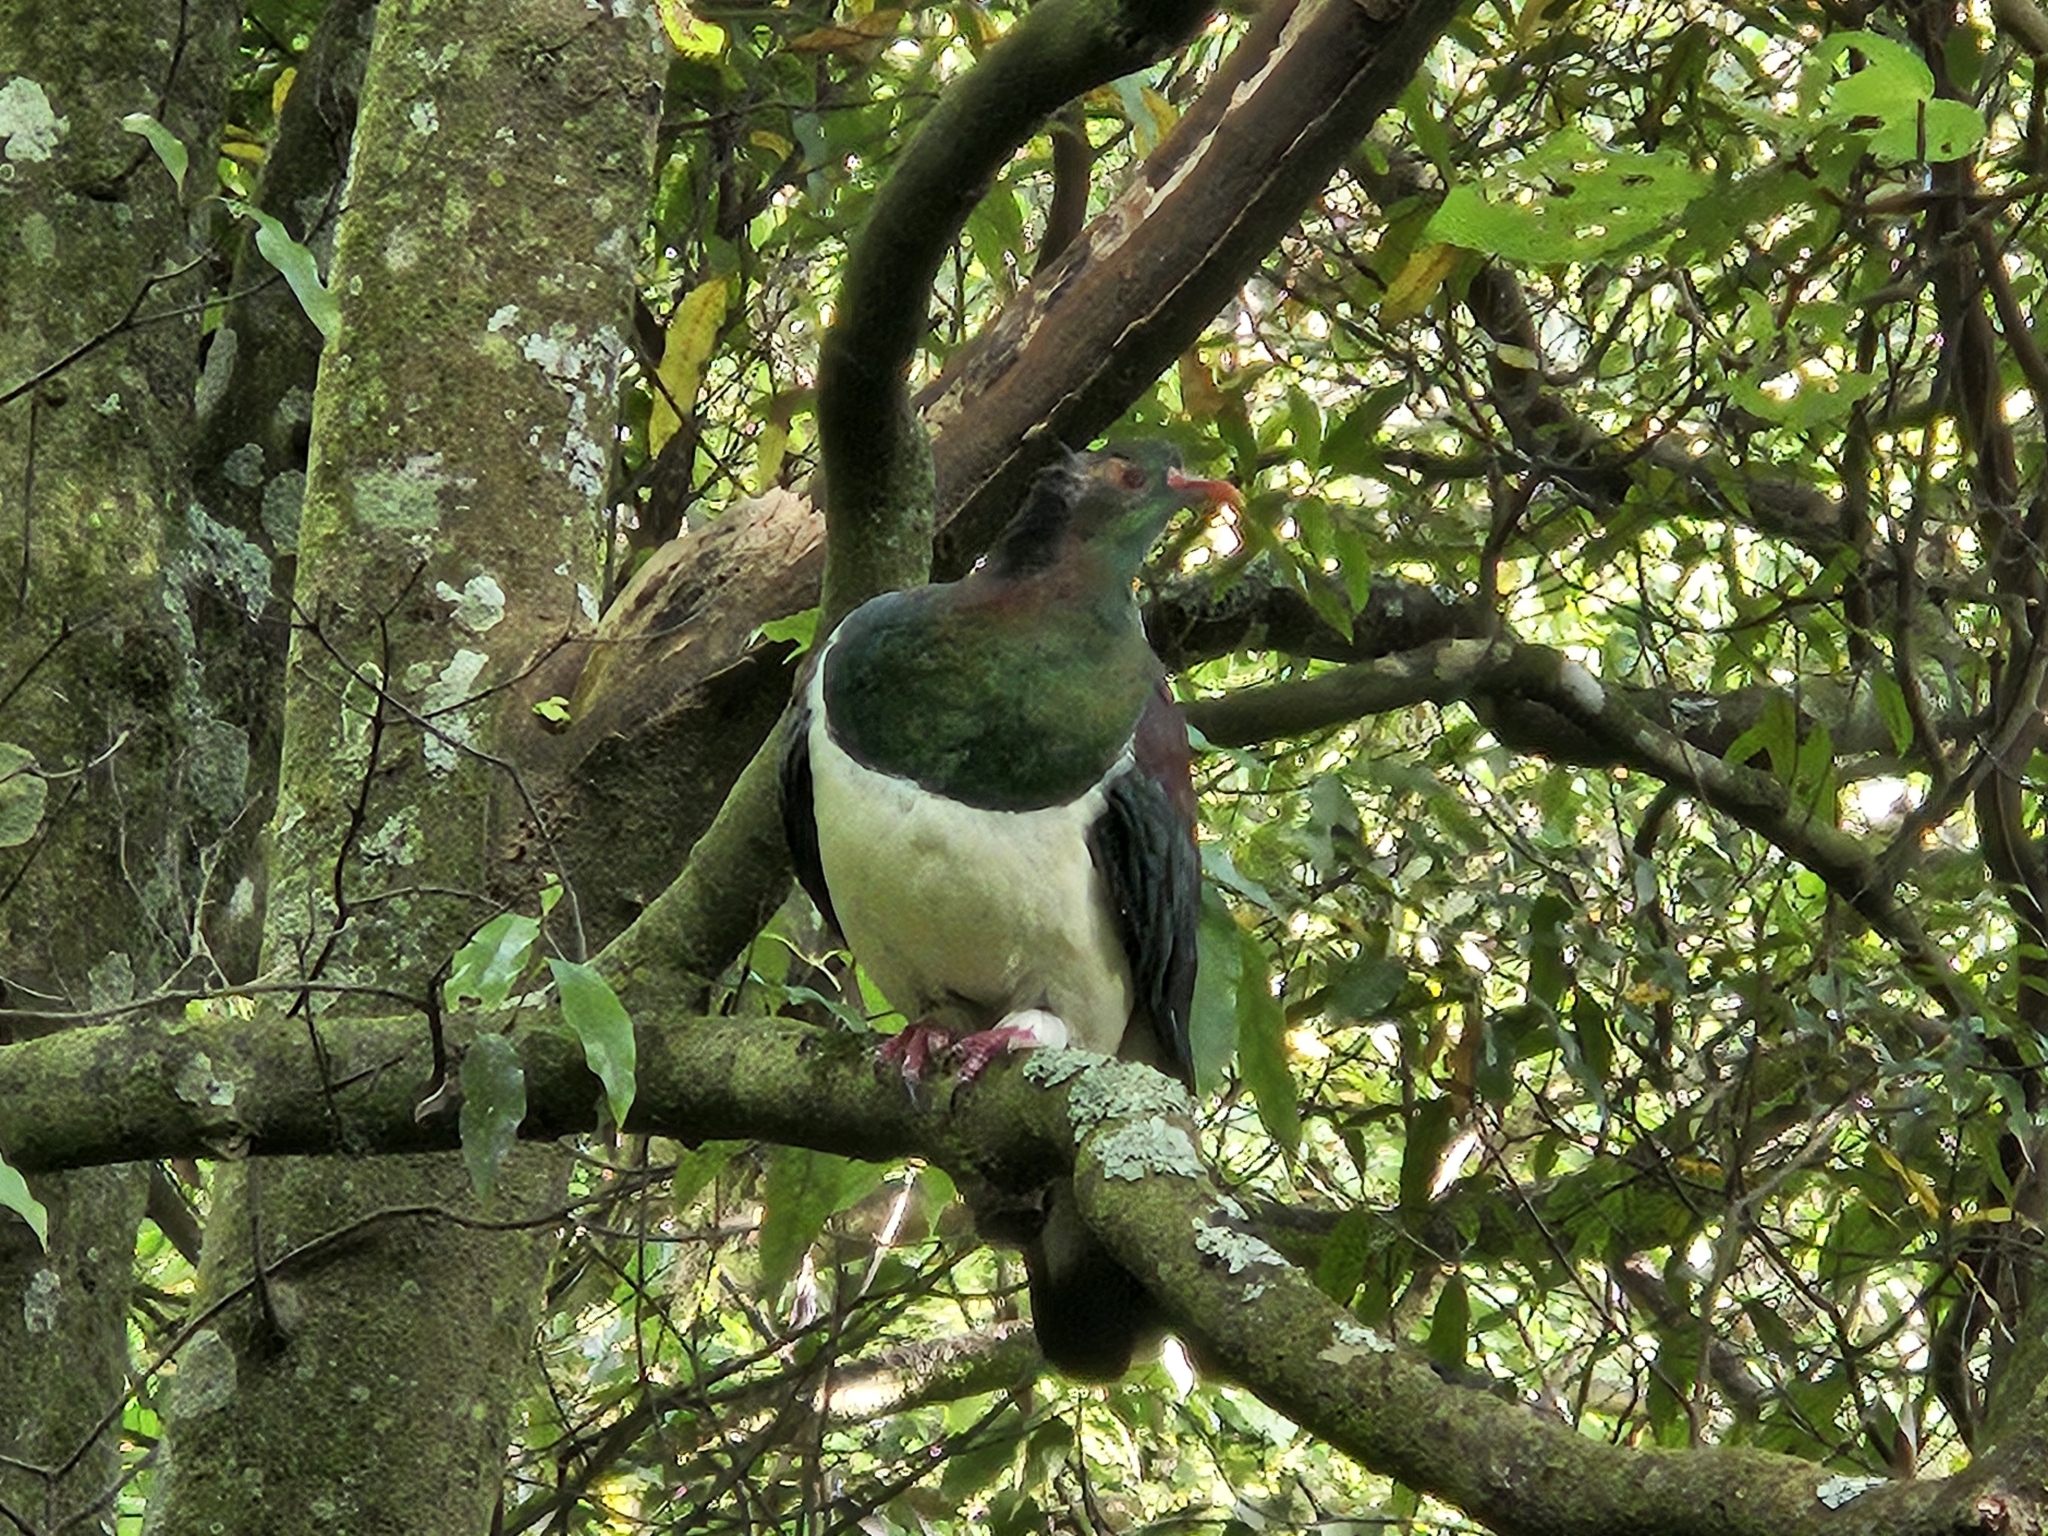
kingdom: Animalia
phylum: Chordata
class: Aves
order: Columbiformes
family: Columbidae
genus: Hemiphaga
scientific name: Hemiphaga novaeseelandiae
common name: New zealand pigeon
